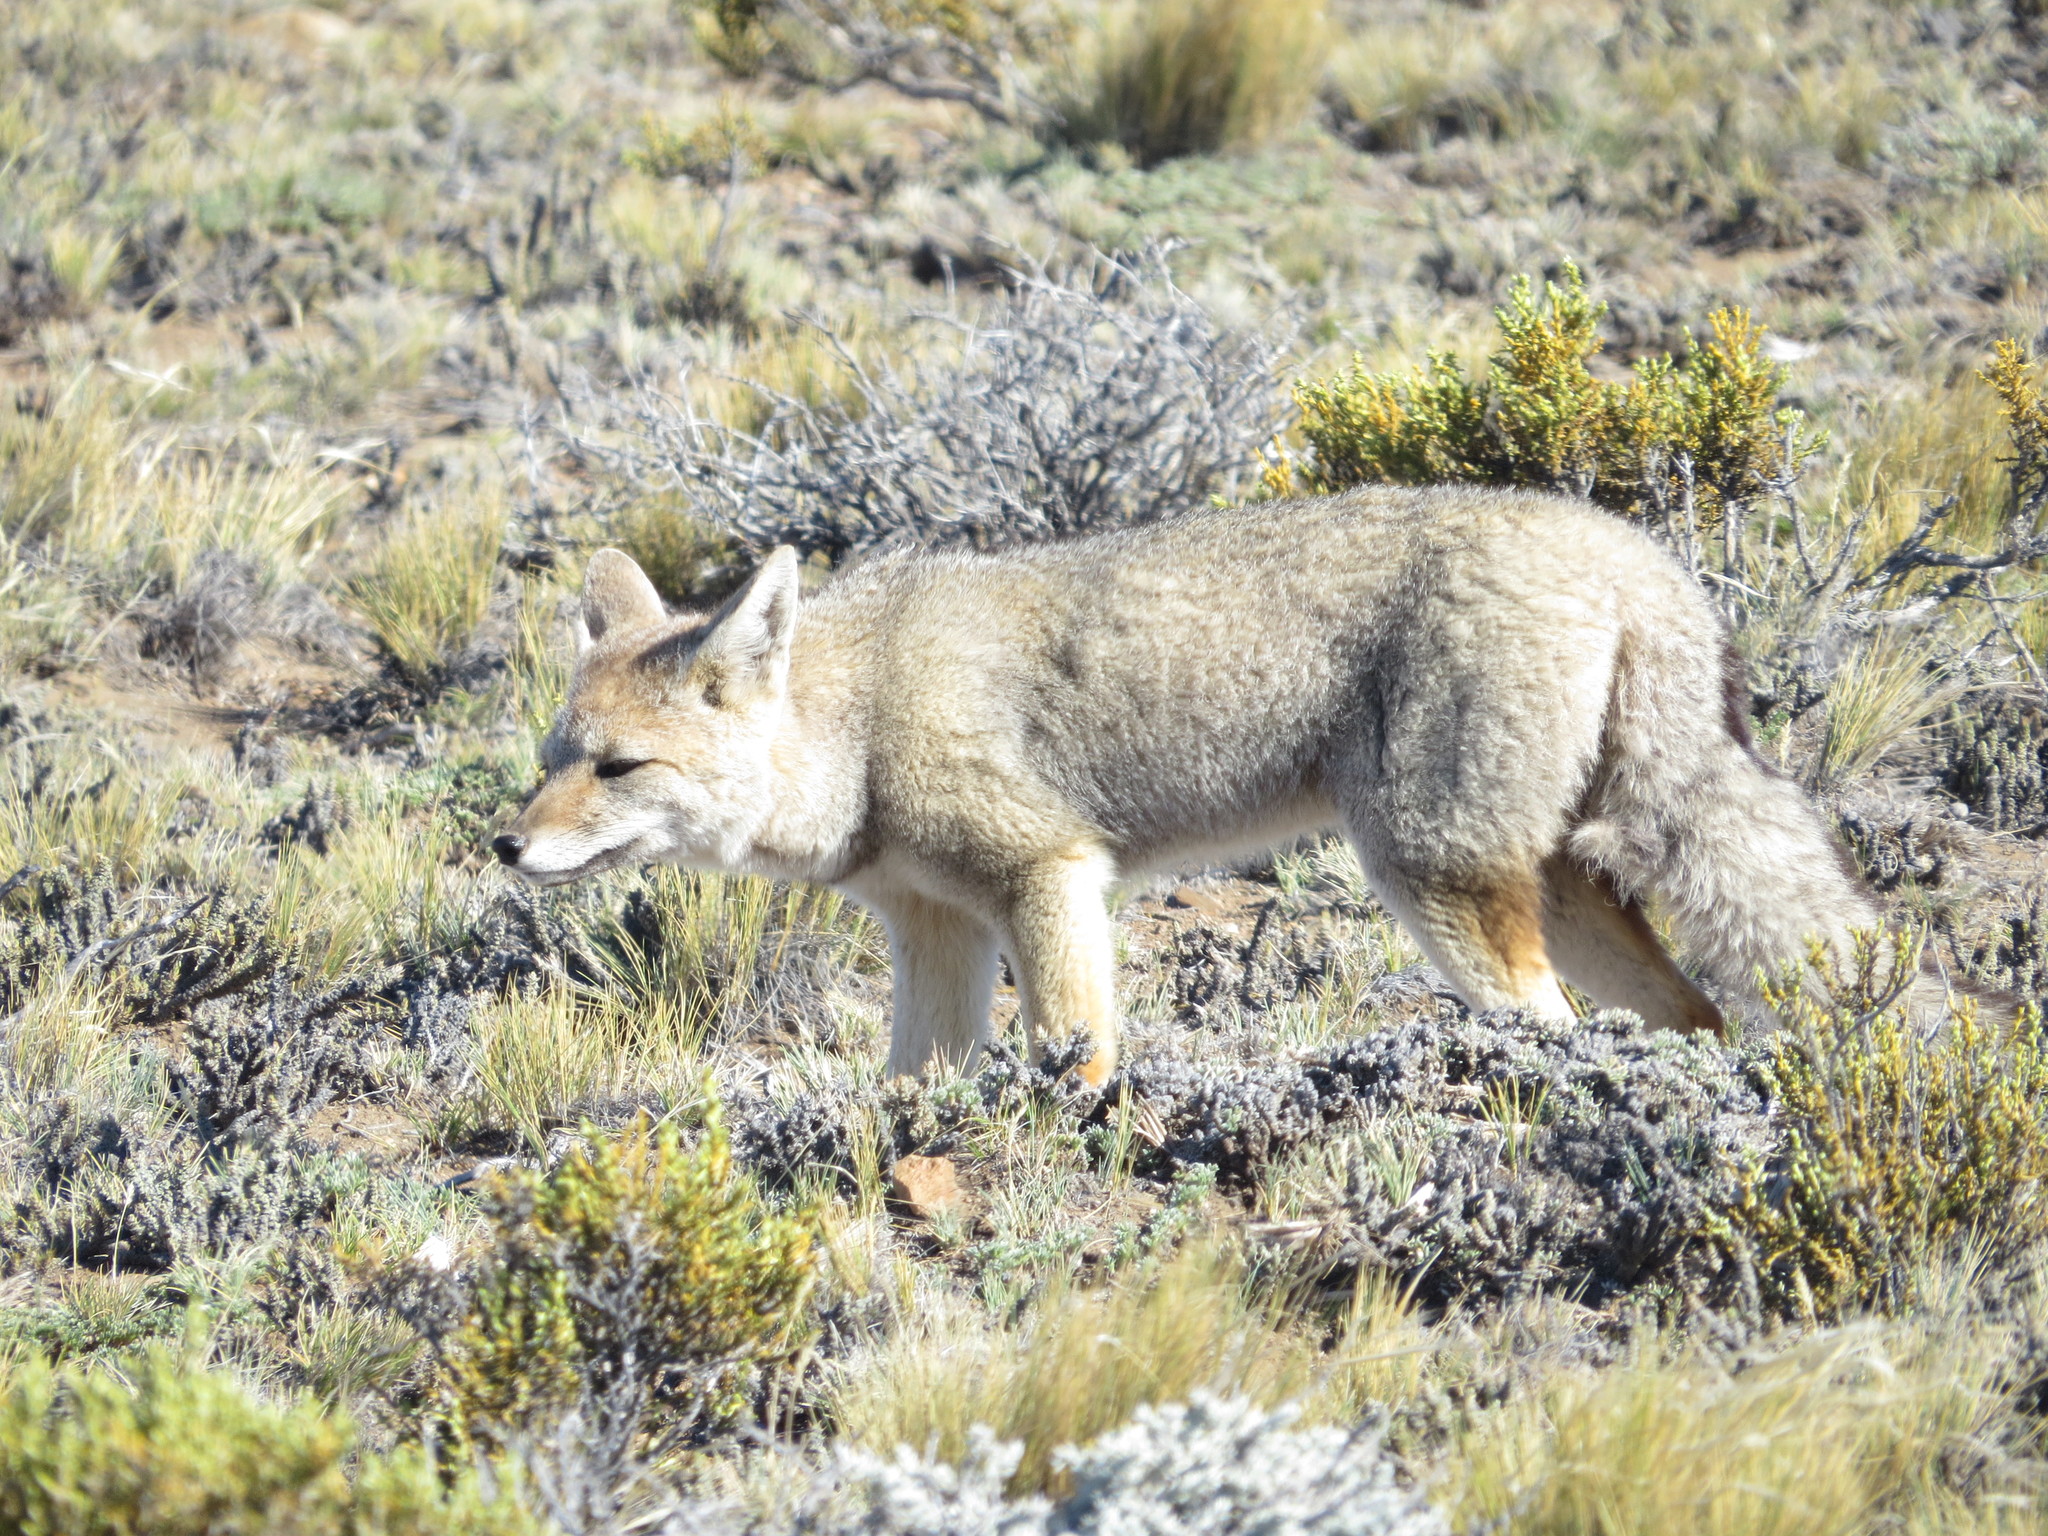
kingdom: Animalia
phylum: Chordata
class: Mammalia
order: Carnivora
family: Canidae
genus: Lycalopex
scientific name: Lycalopex gymnocercus
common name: Pampas fox
